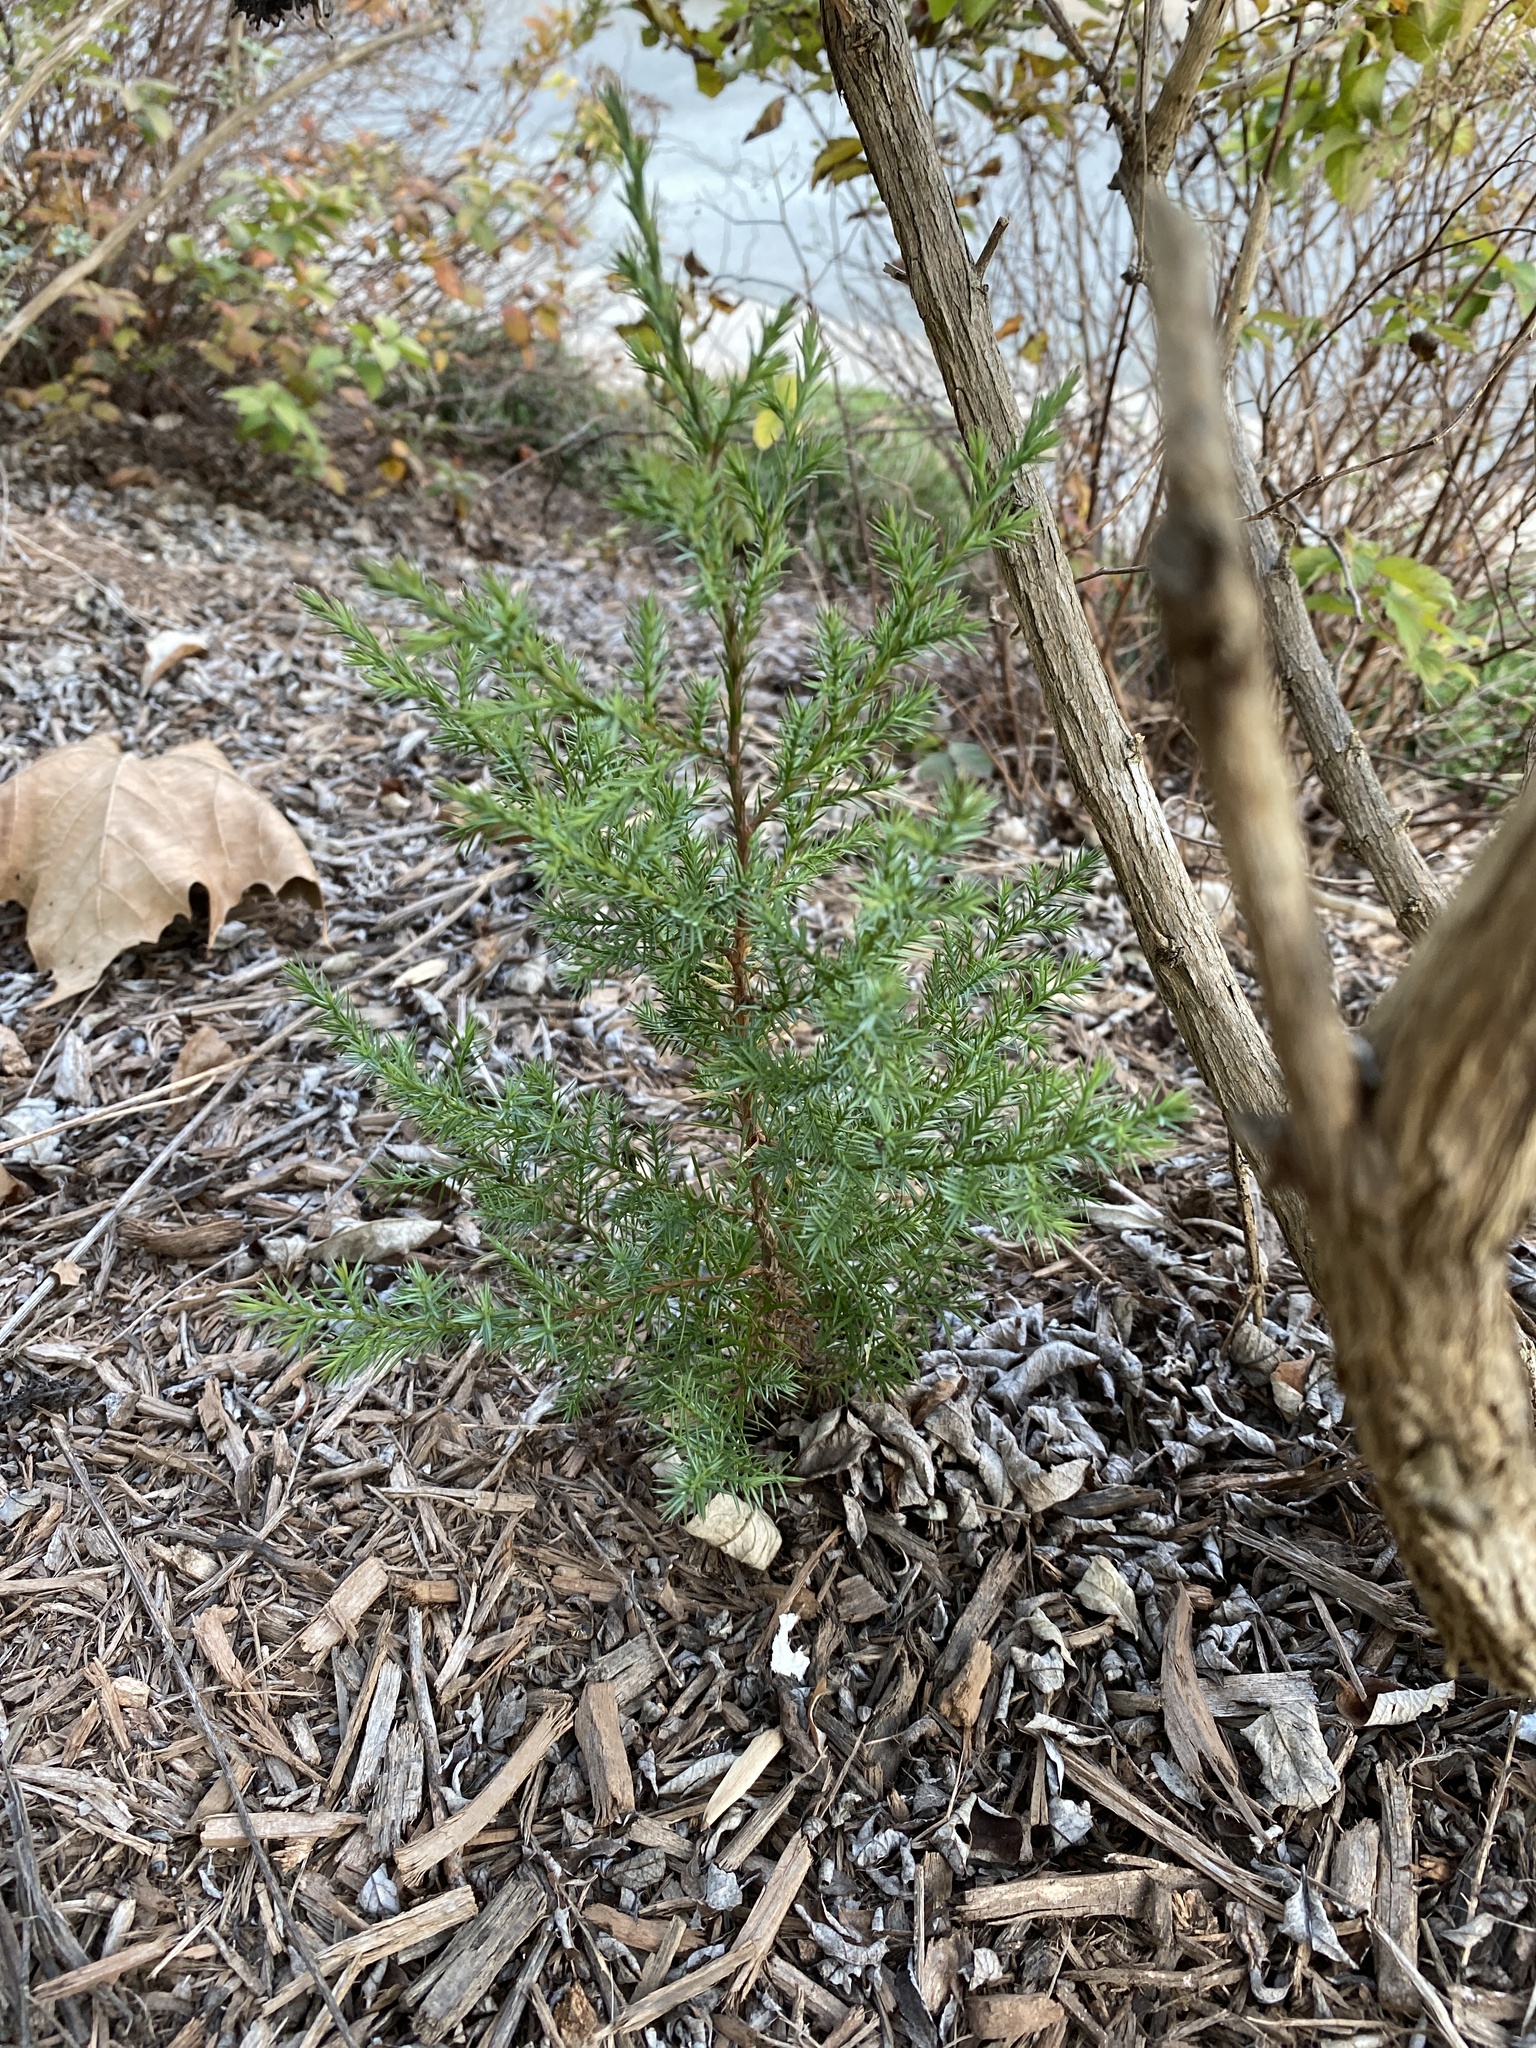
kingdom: Plantae
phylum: Tracheophyta
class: Pinopsida
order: Pinales
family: Cupressaceae
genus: Juniperus
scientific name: Juniperus virginiana
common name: Red juniper
